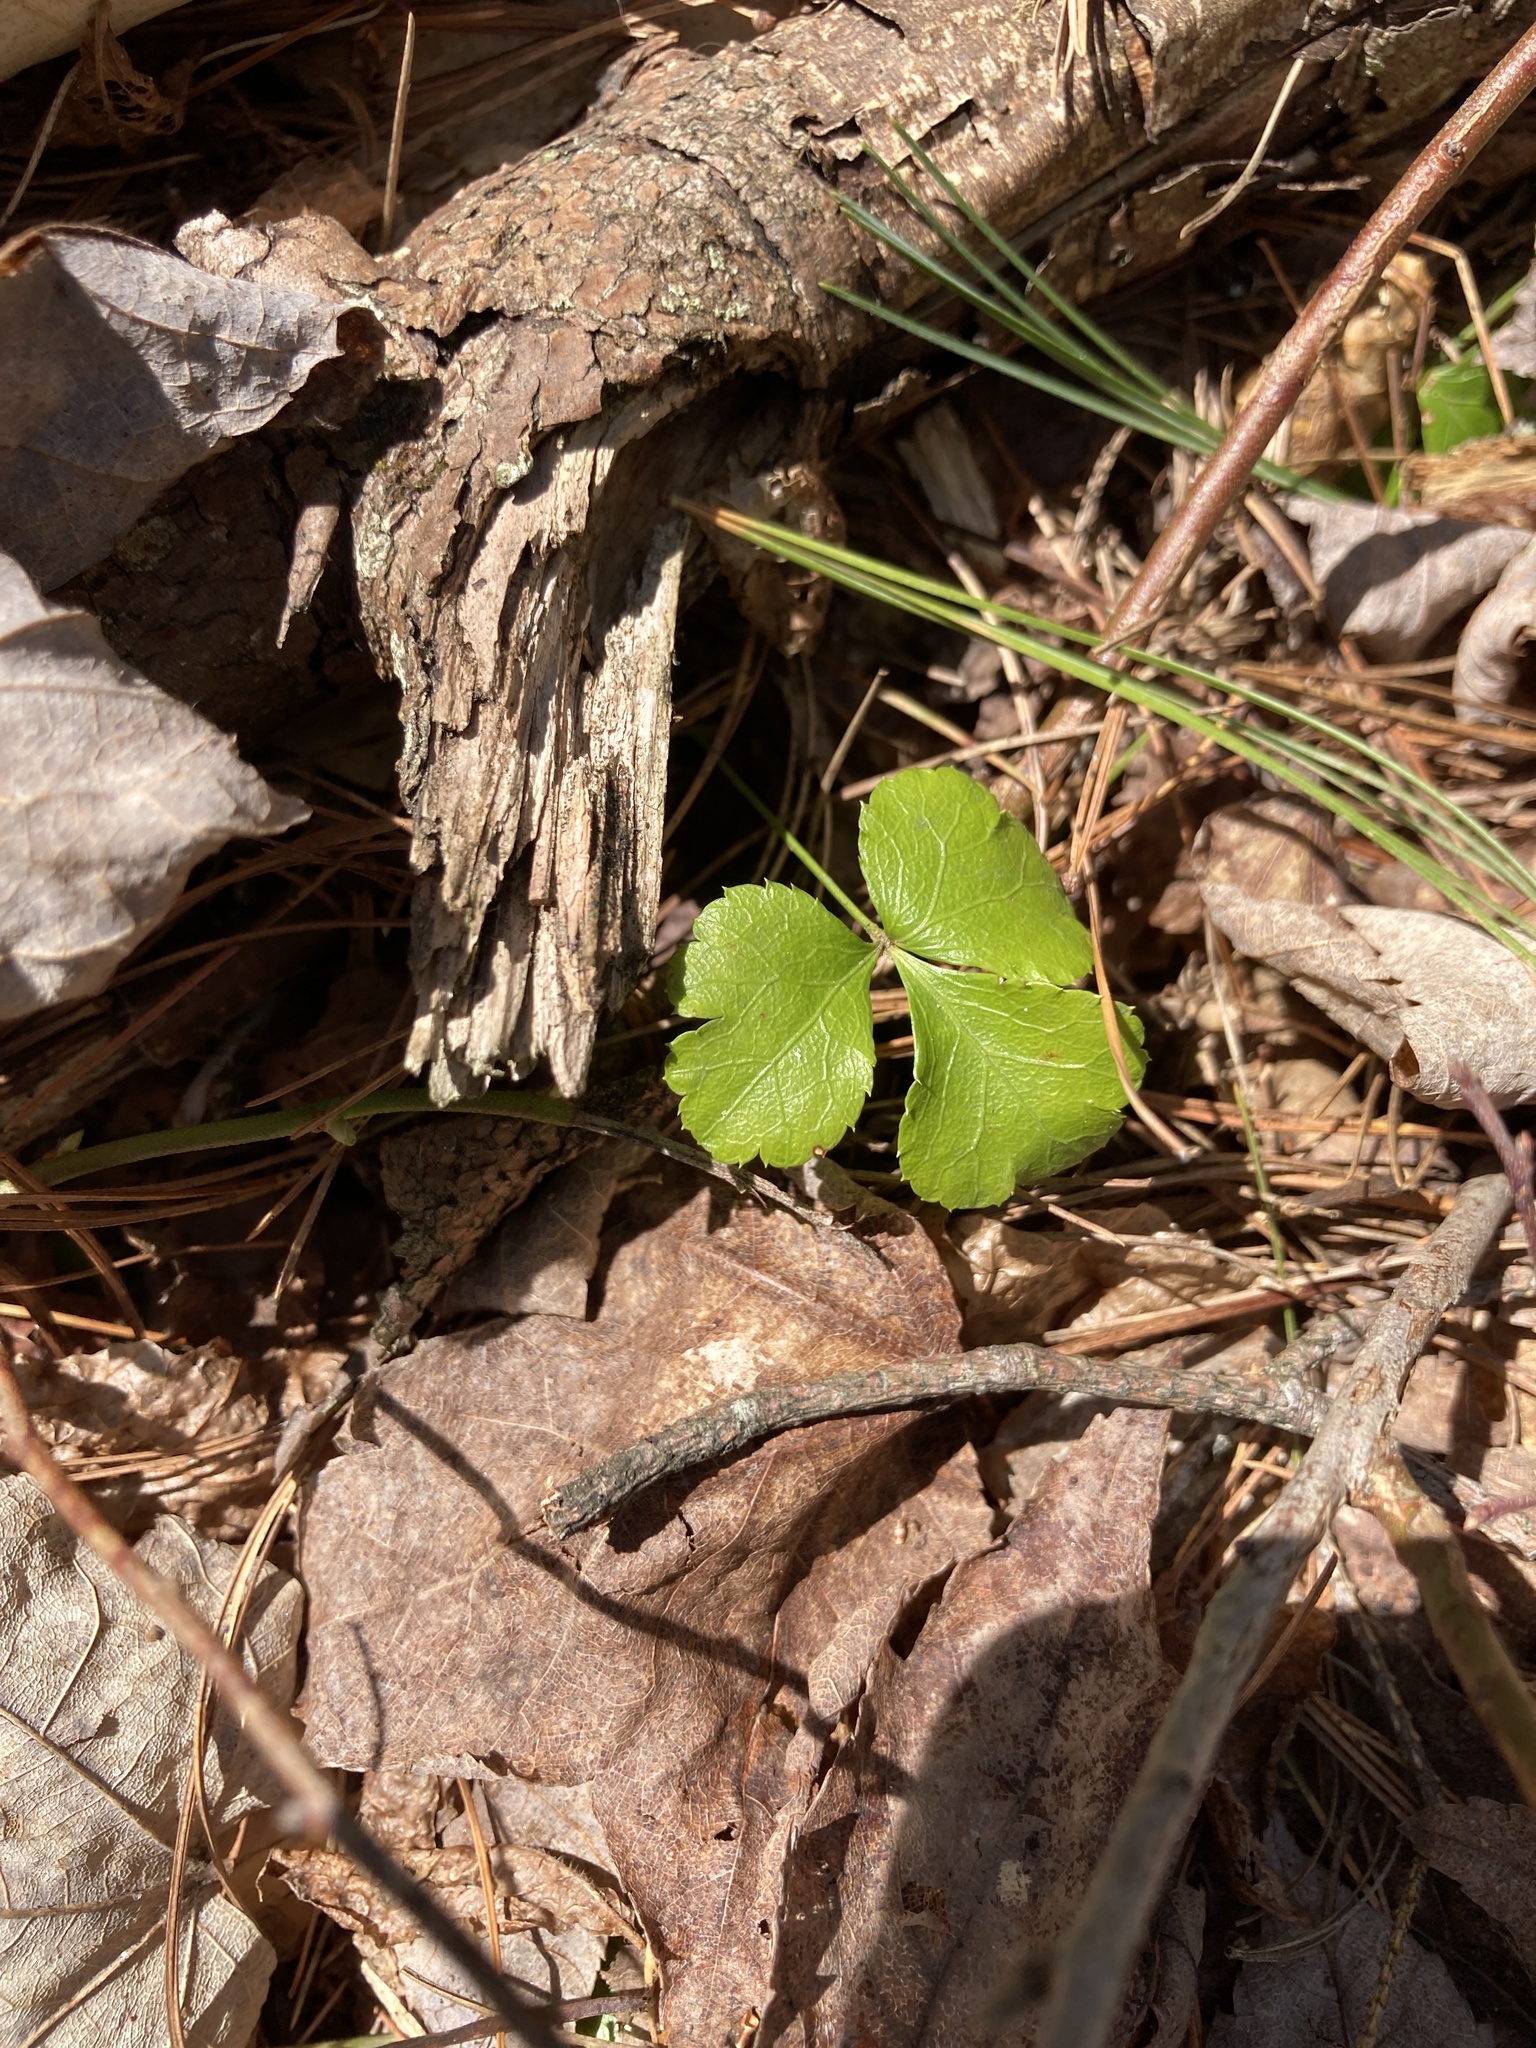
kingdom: Plantae
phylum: Tracheophyta
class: Magnoliopsida
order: Ranunculales
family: Ranunculaceae
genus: Coptis
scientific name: Coptis trifolia
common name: Canker-root
